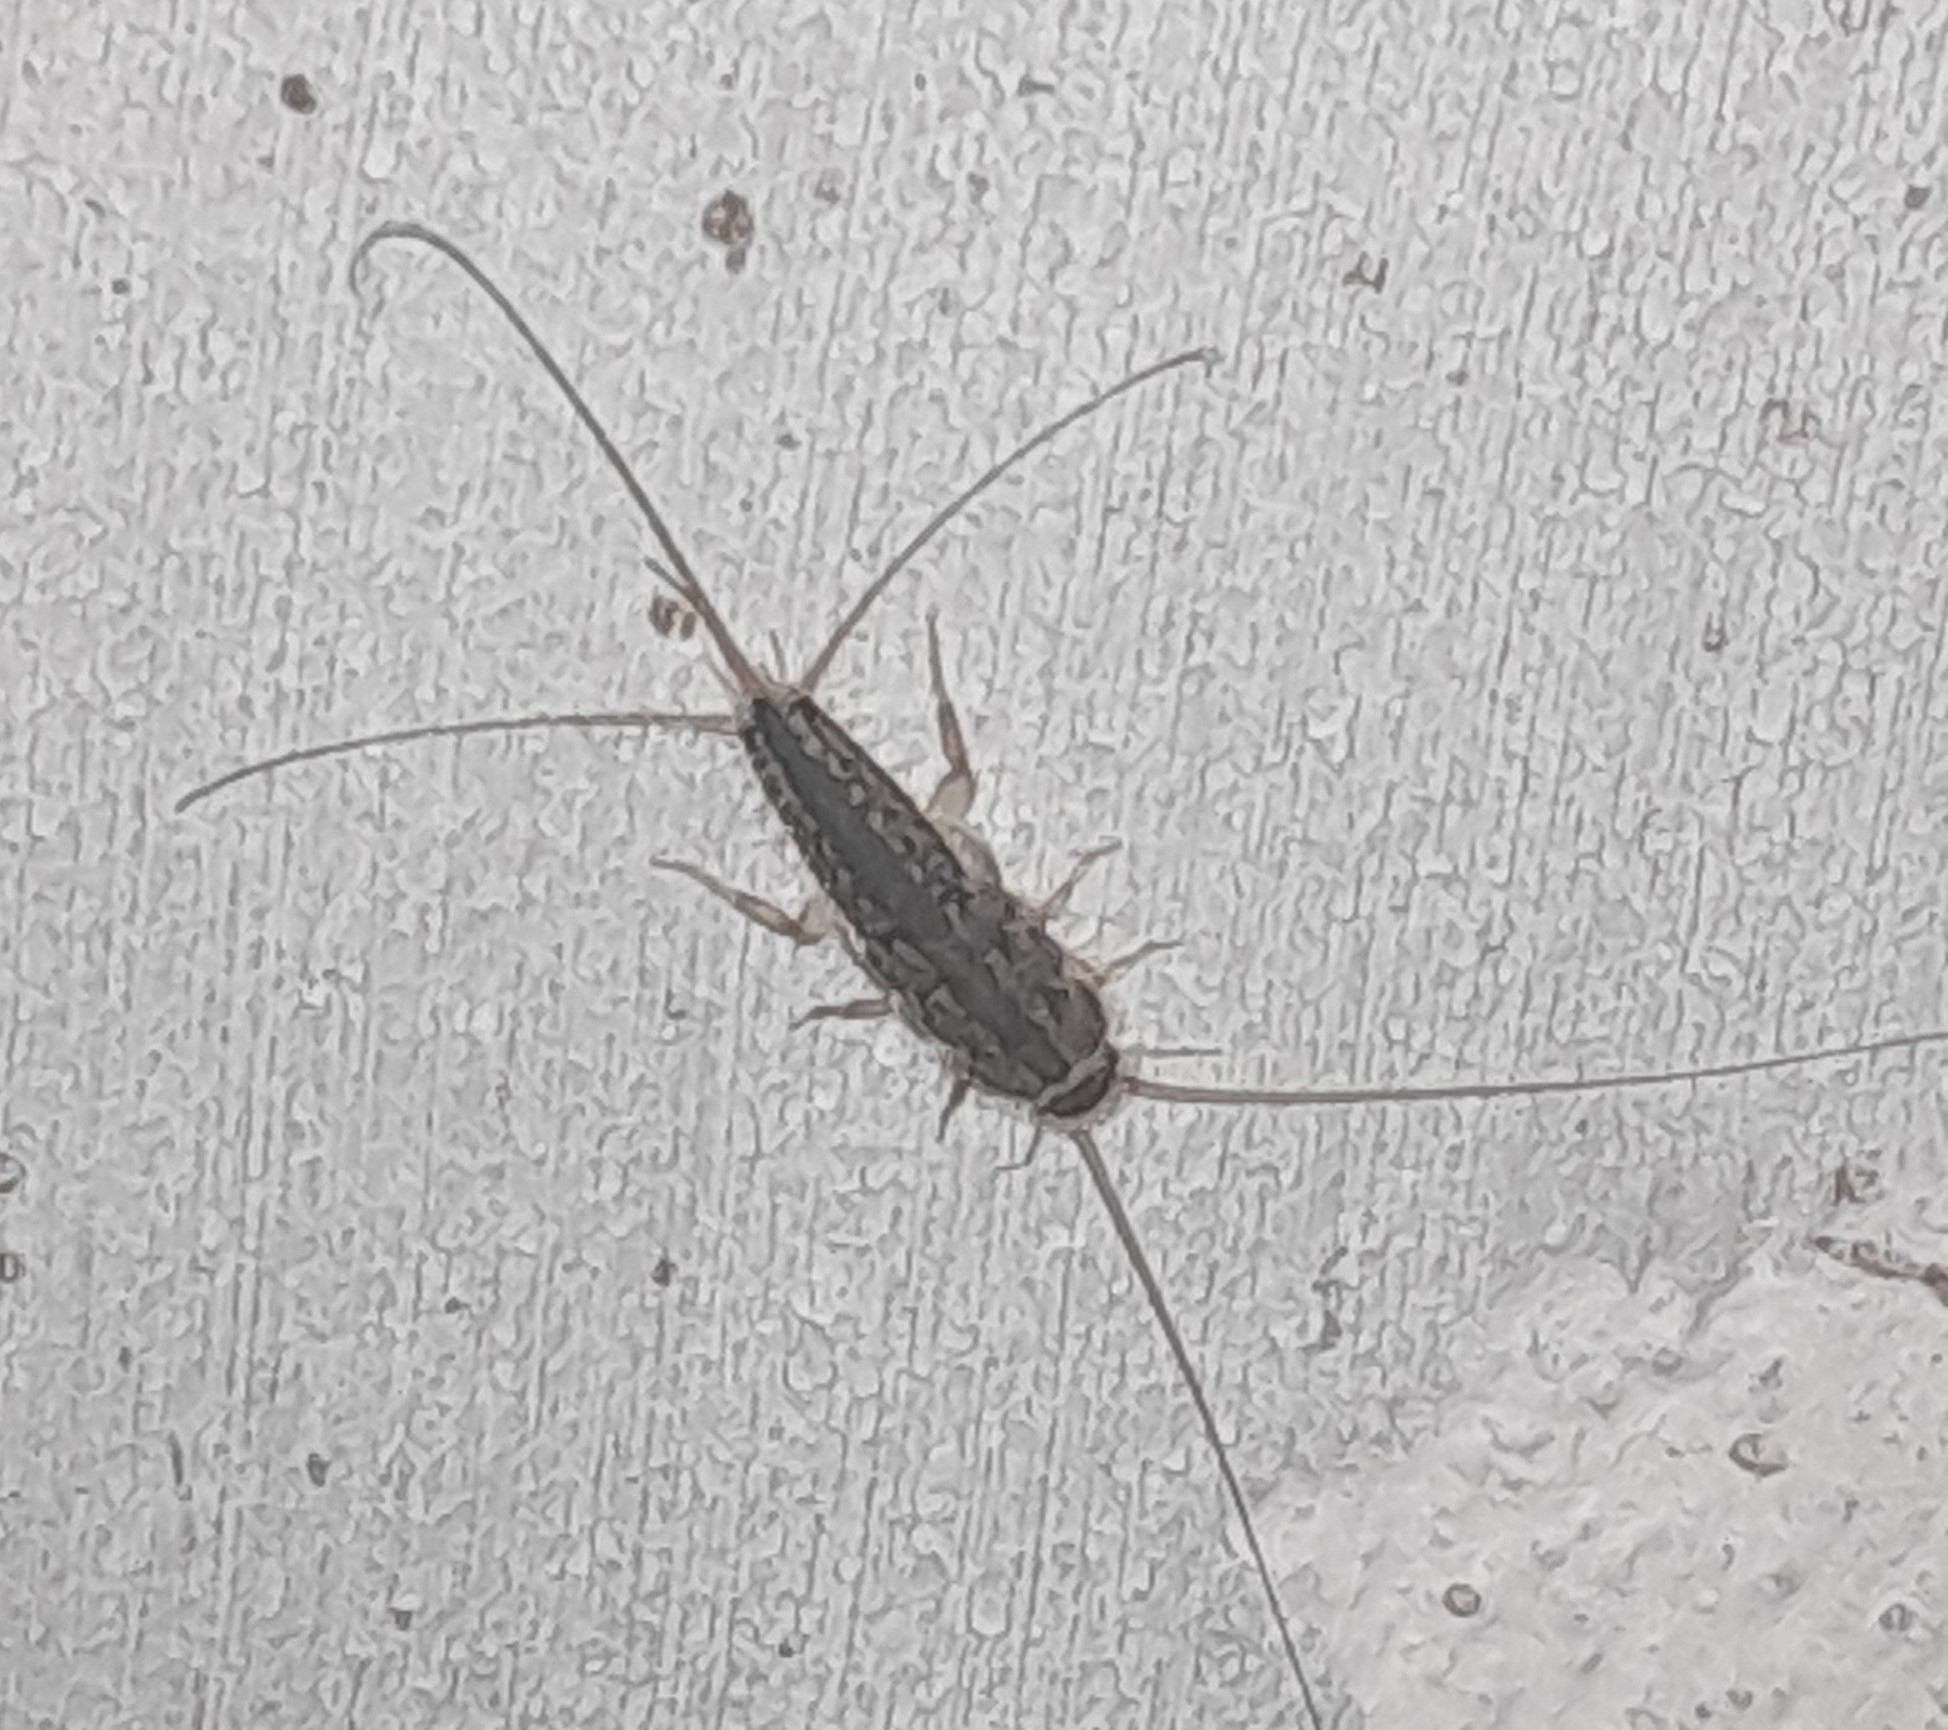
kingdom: Animalia
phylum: Arthropoda
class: Insecta
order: Zygentoma
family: Lepismatidae
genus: Ctenolepisma
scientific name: Ctenolepisma lineata
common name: Four-lined silverfish
